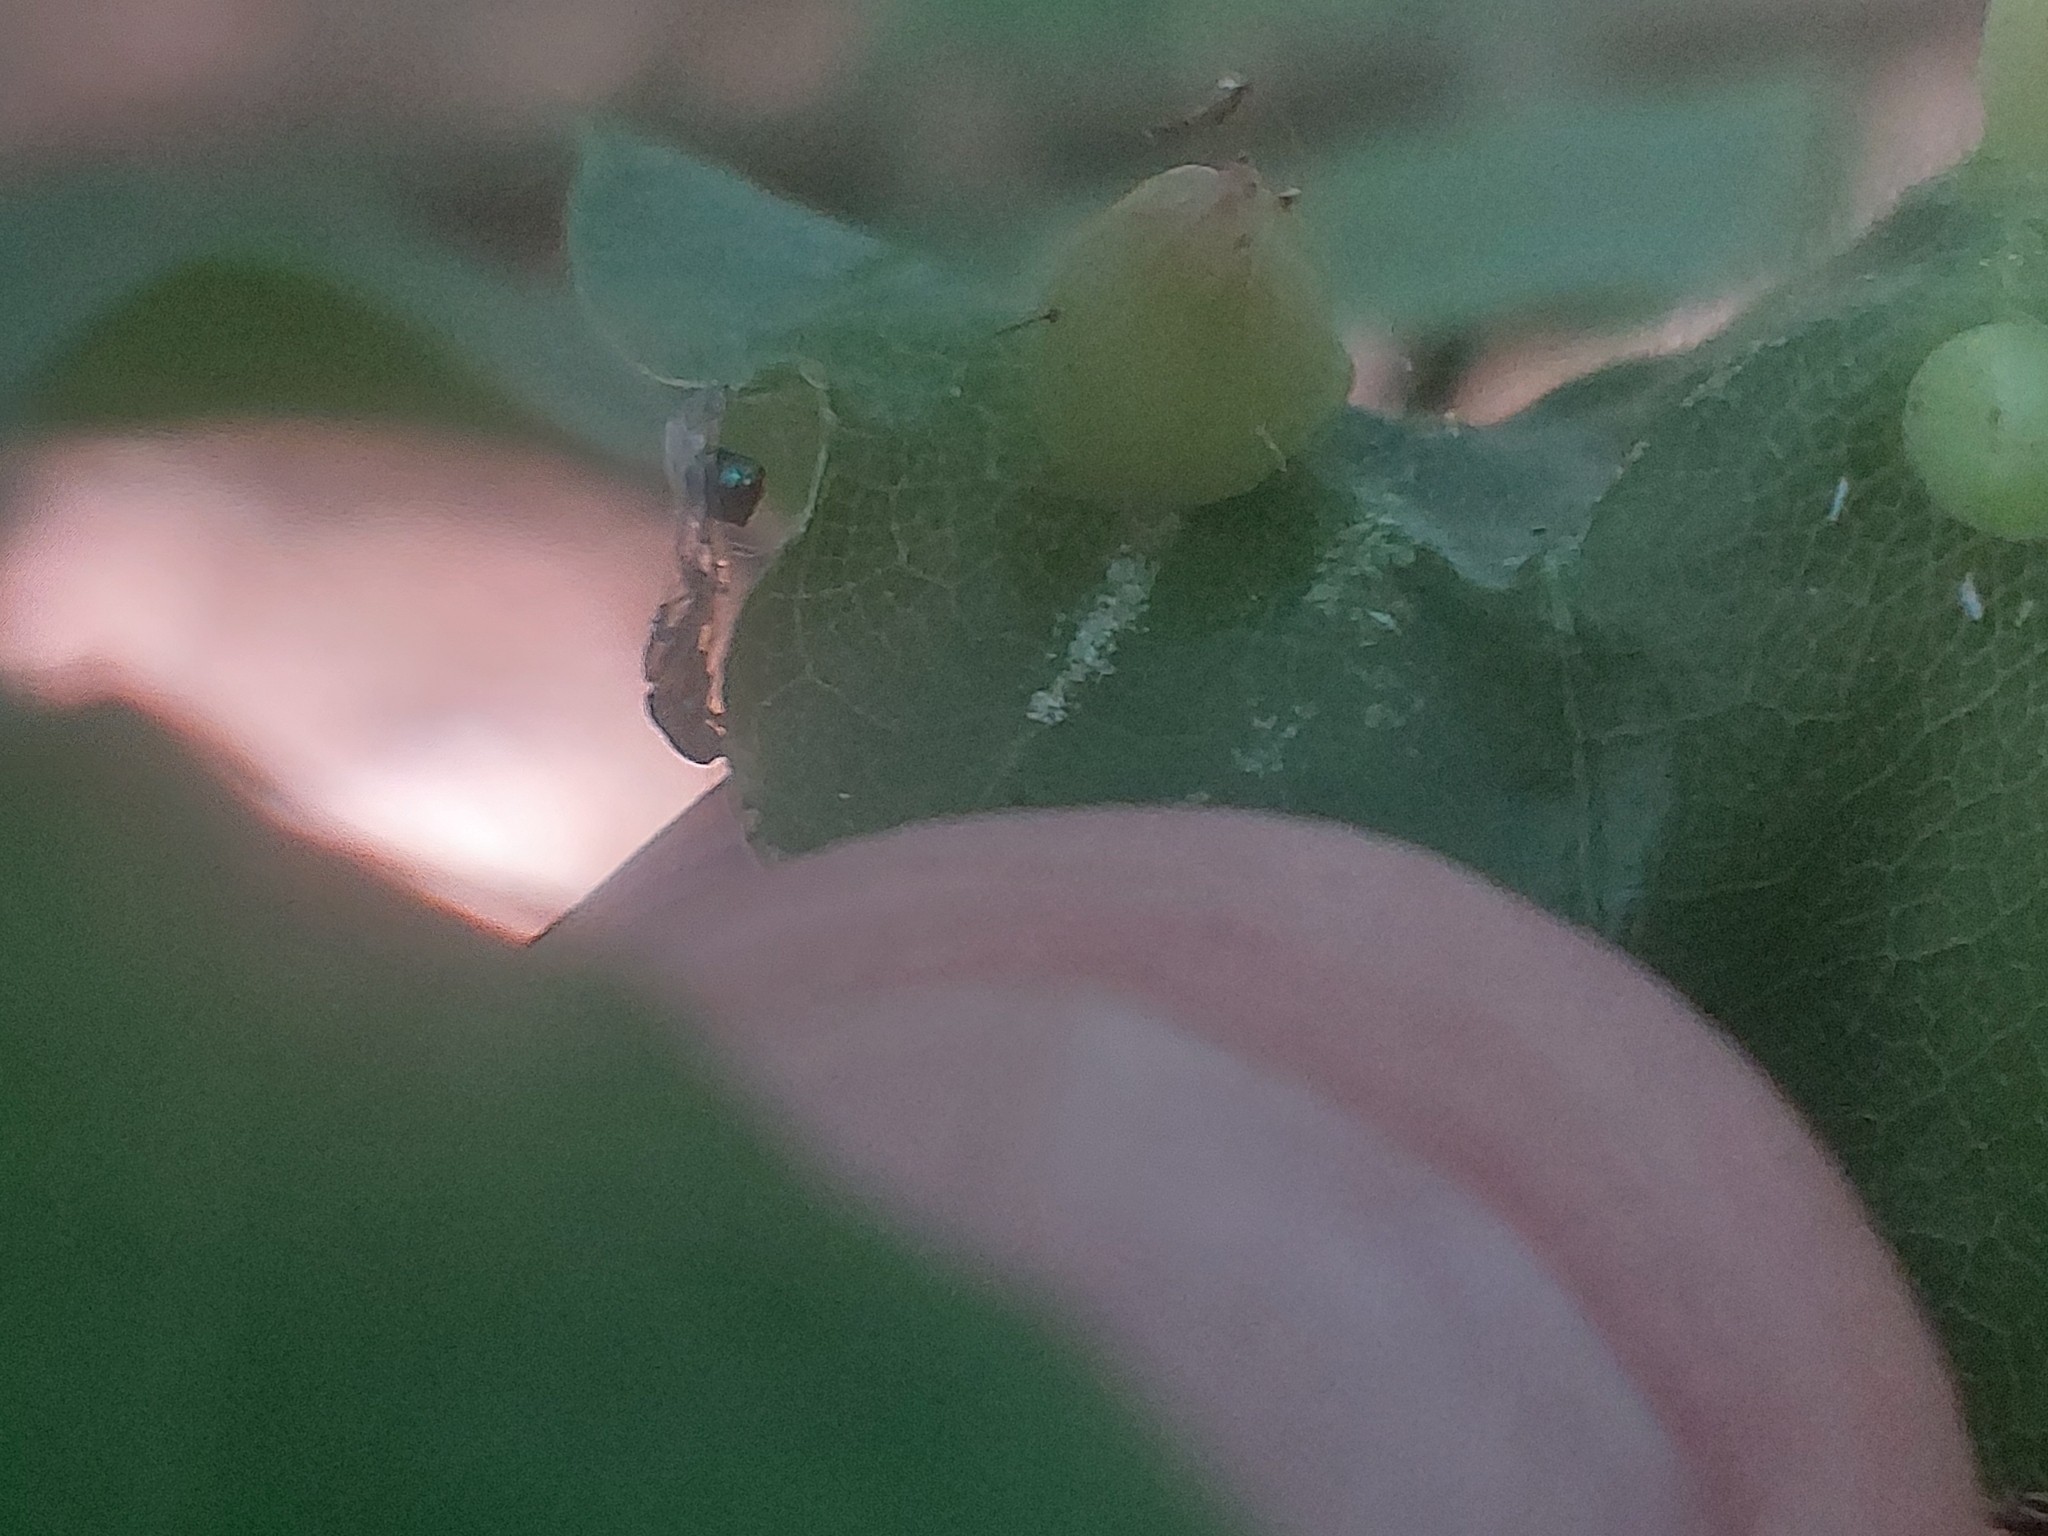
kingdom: Animalia
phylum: Arthropoda
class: Insecta
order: Diptera
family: Cecidomyiidae
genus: Mikiola
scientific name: Mikiola fagi
